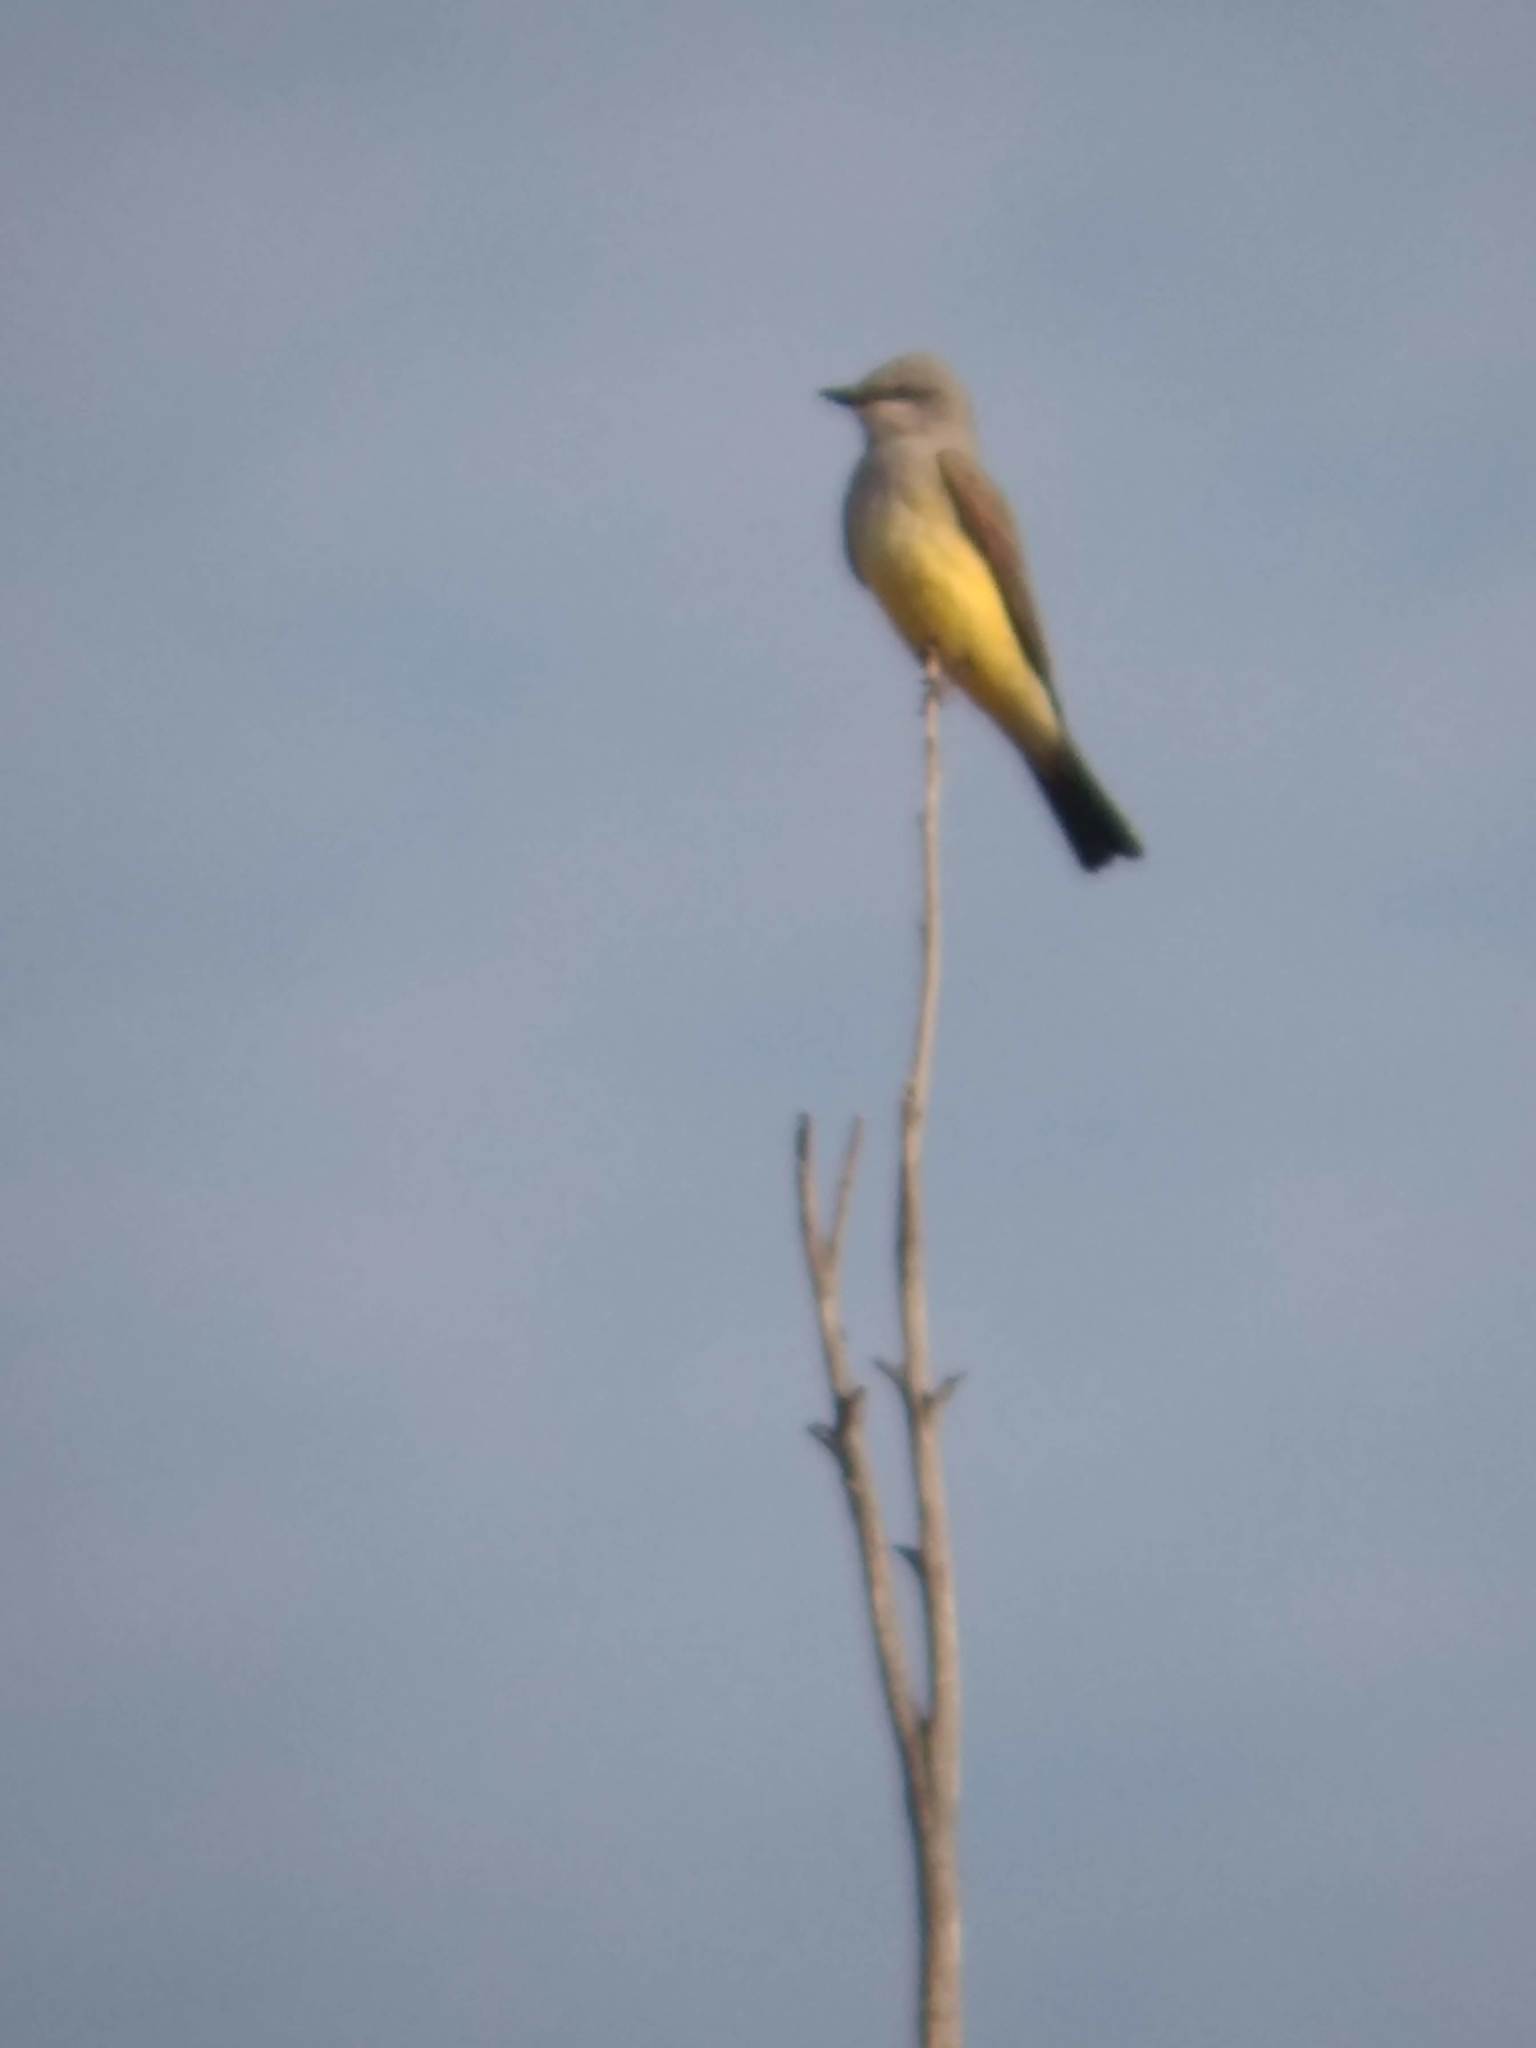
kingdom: Animalia
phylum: Chordata
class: Aves
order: Passeriformes
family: Tyrannidae
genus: Tyrannus
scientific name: Tyrannus verticalis
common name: Western kingbird
